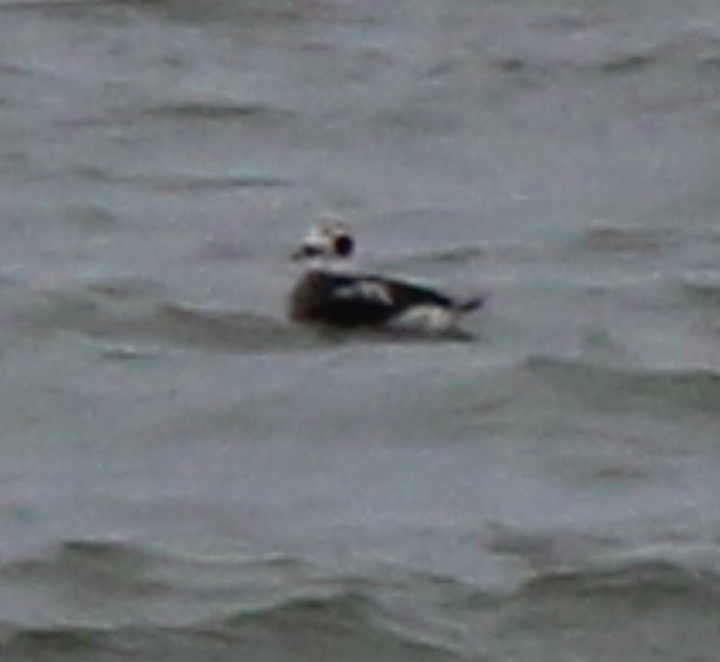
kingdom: Animalia
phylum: Chordata
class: Aves
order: Anseriformes
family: Anatidae
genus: Clangula
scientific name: Clangula hyemalis
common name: Long-tailed duck
